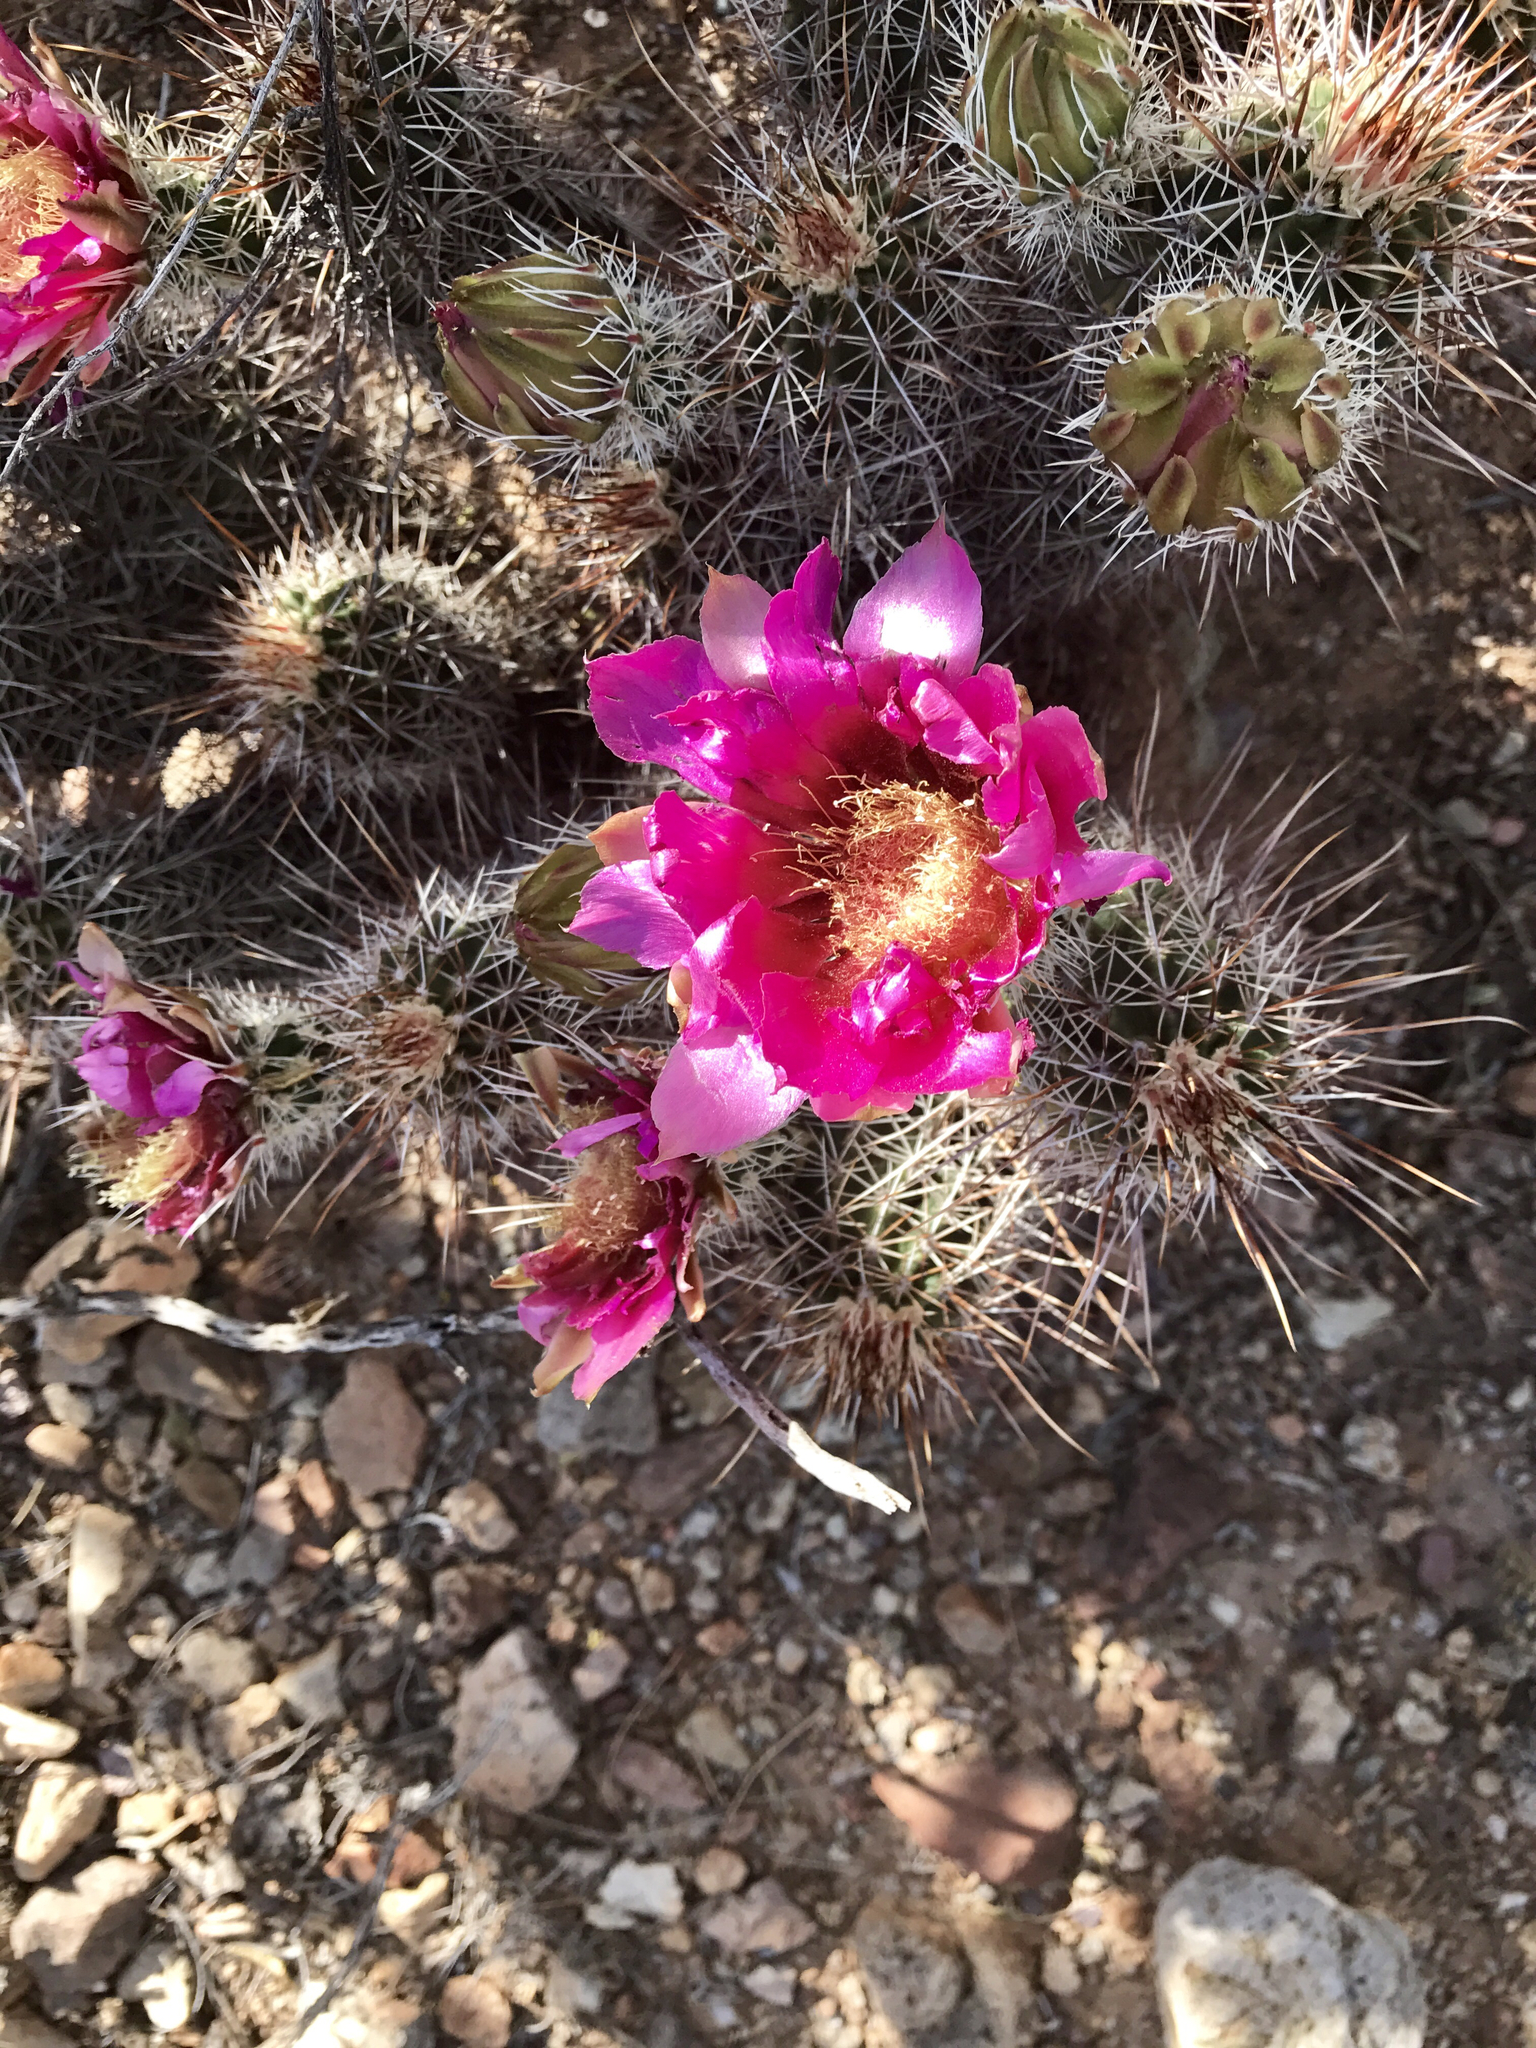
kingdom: Plantae
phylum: Tracheophyta
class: Magnoliopsida
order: Caryophyllales
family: Cactaceae
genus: Echinocereus
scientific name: Echinocereus fasciculatus
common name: Bundle hedgehog
